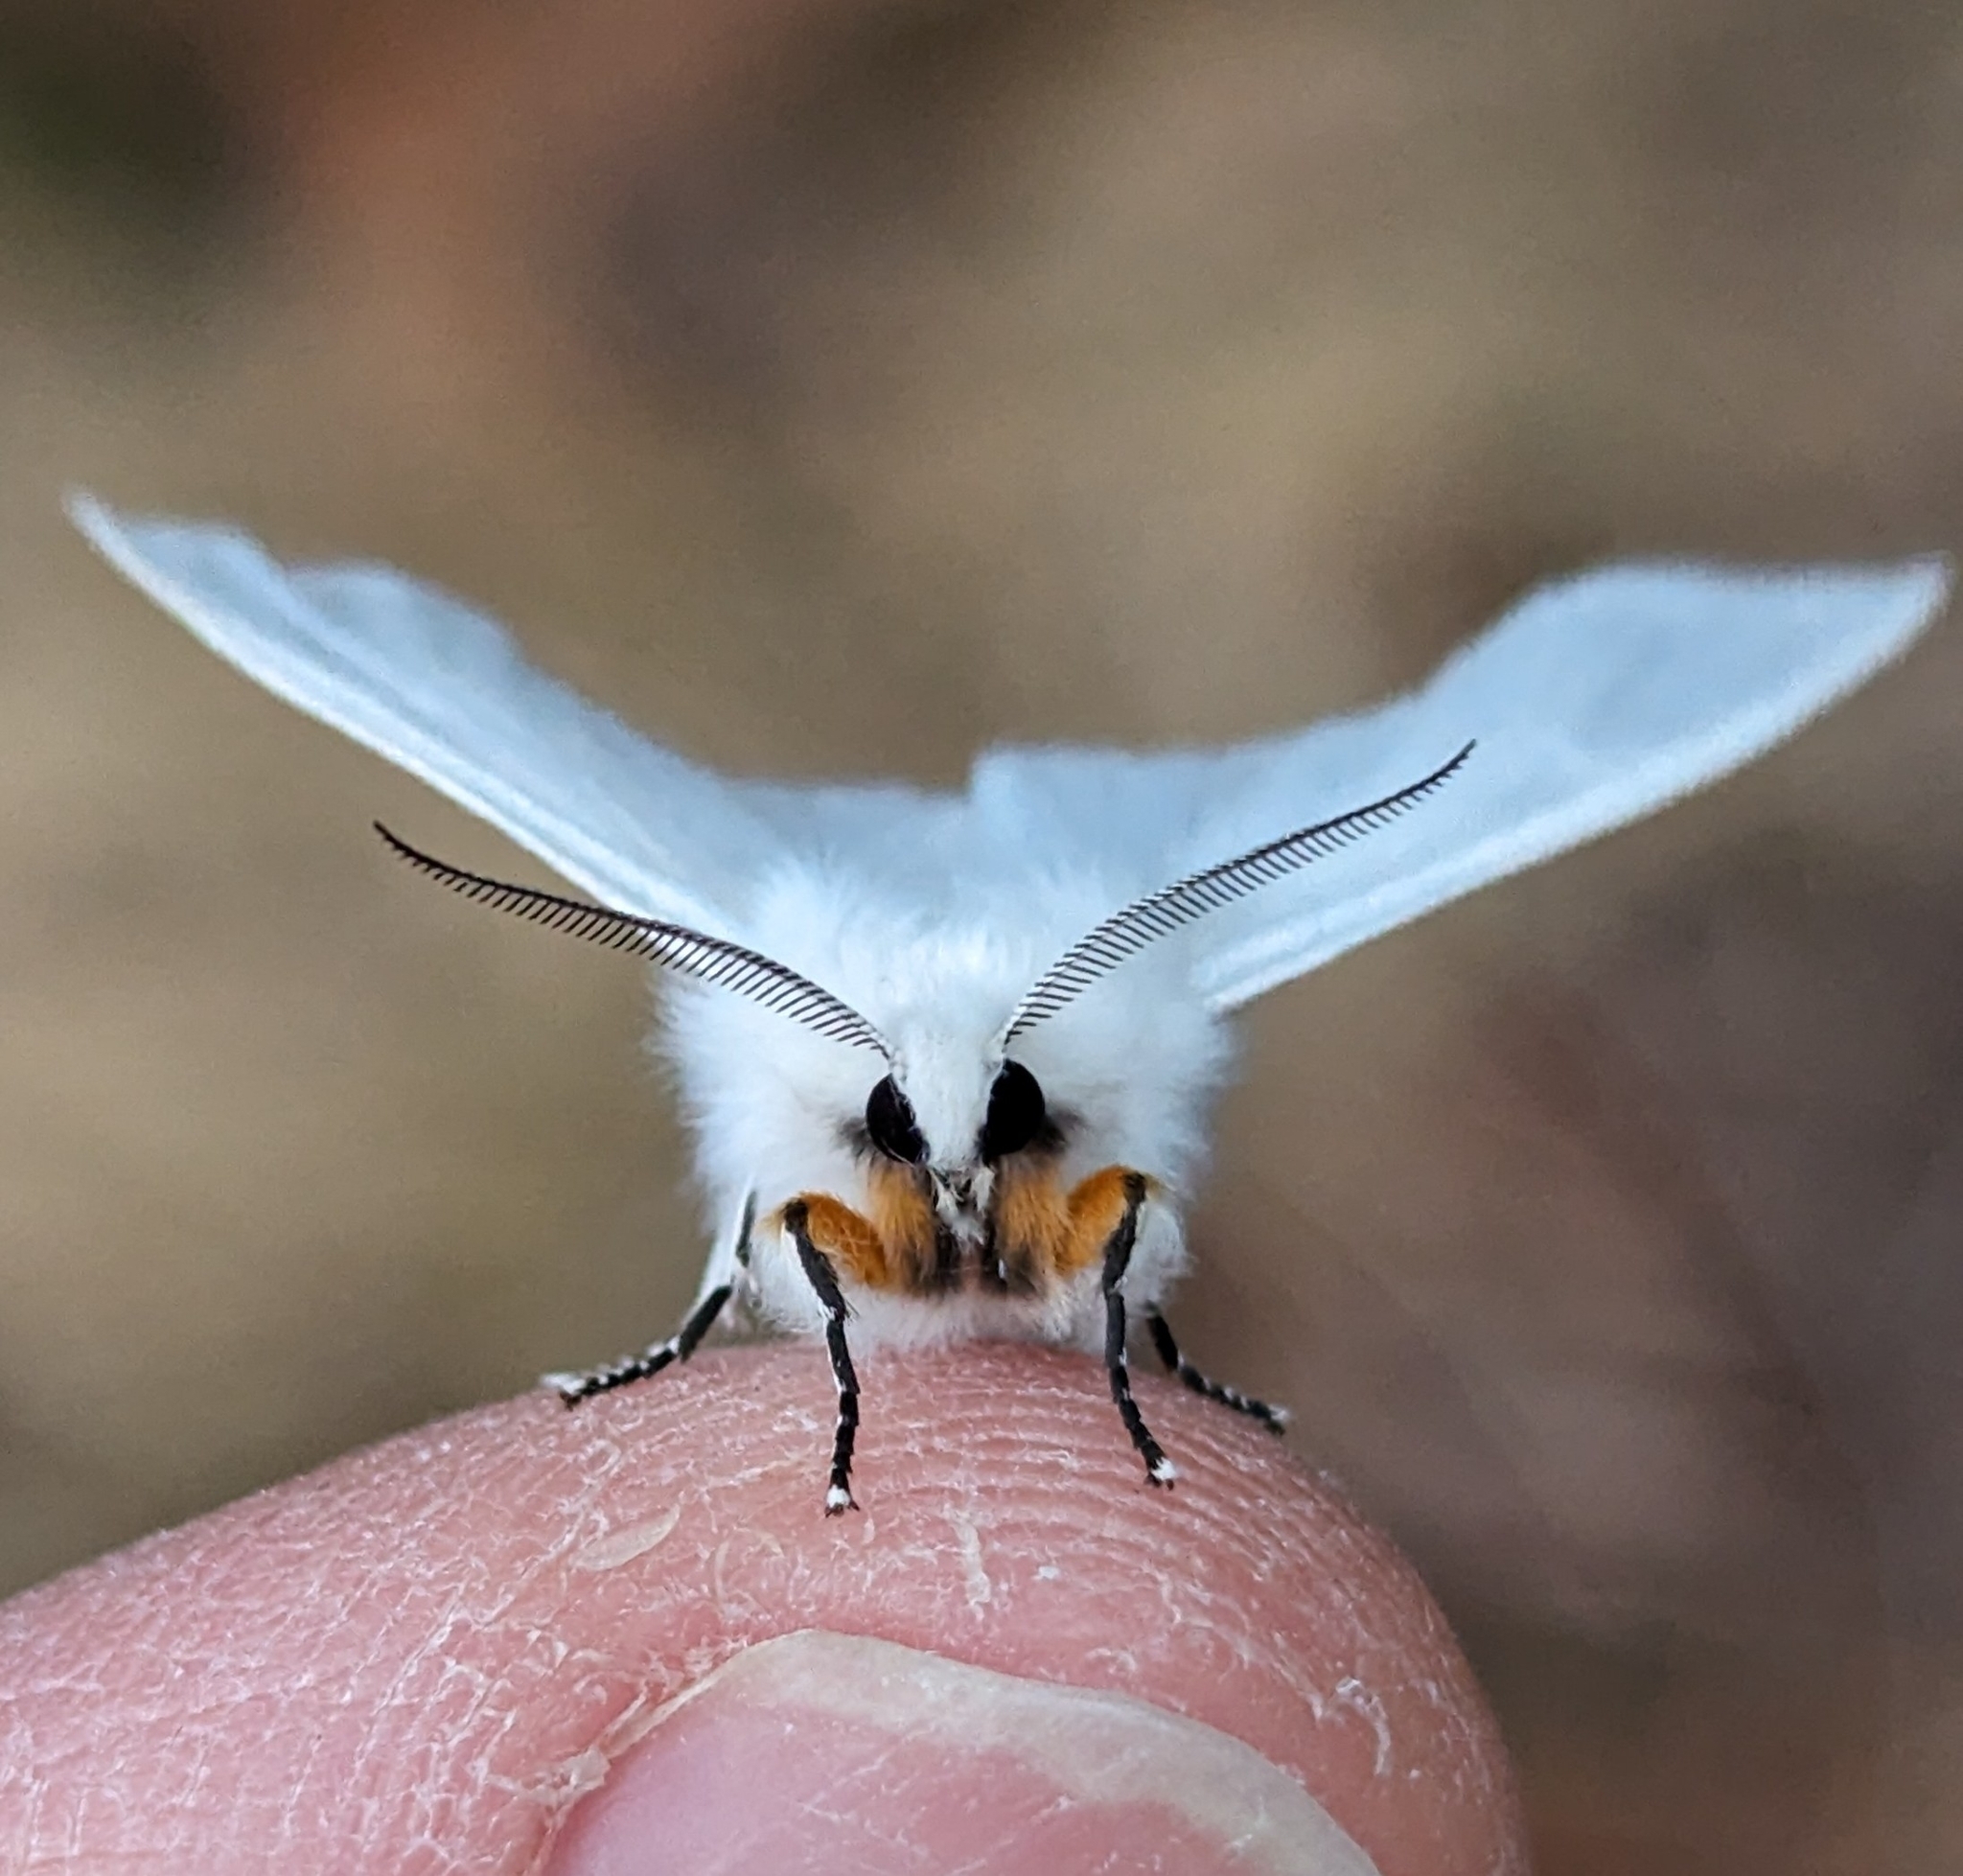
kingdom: Animalia
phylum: Arthropoda
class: Insecta
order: Lepidoptera
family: Erebidae
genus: Hyphantria
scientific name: Hyphantria cunea
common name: American white moth
